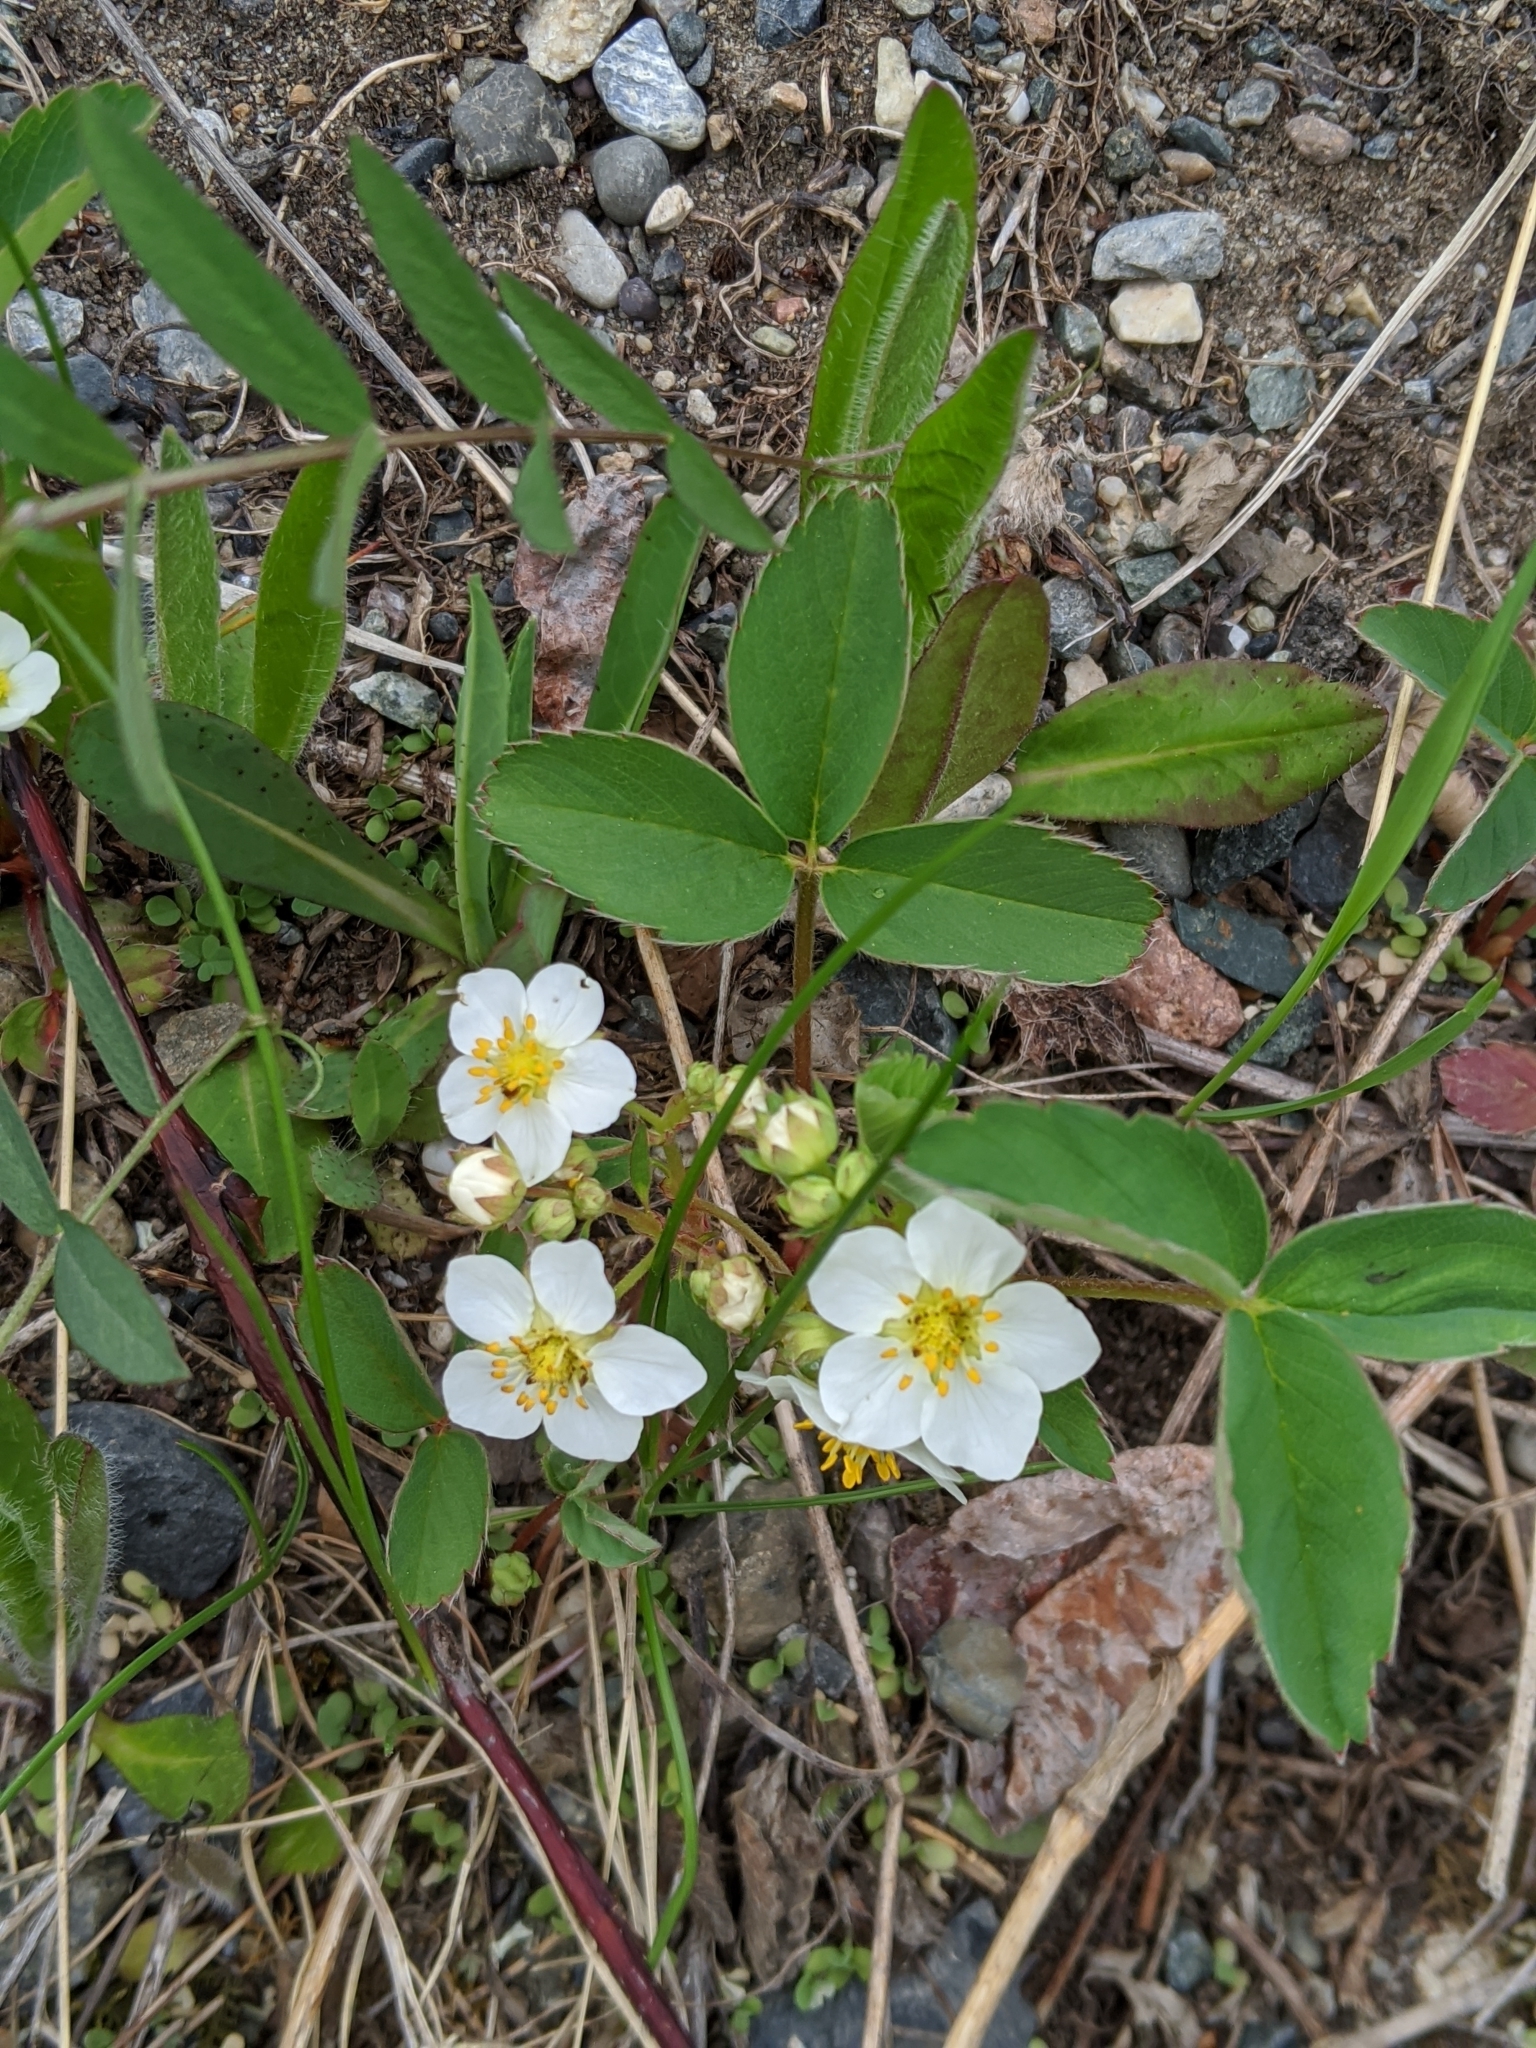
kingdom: Plantae
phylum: Tracheophyta
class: Magnoliopsida
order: Rosales
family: Rosaceae
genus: Fragaria
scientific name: Fragaria virginiana
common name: Thickleaved wild strawberry
